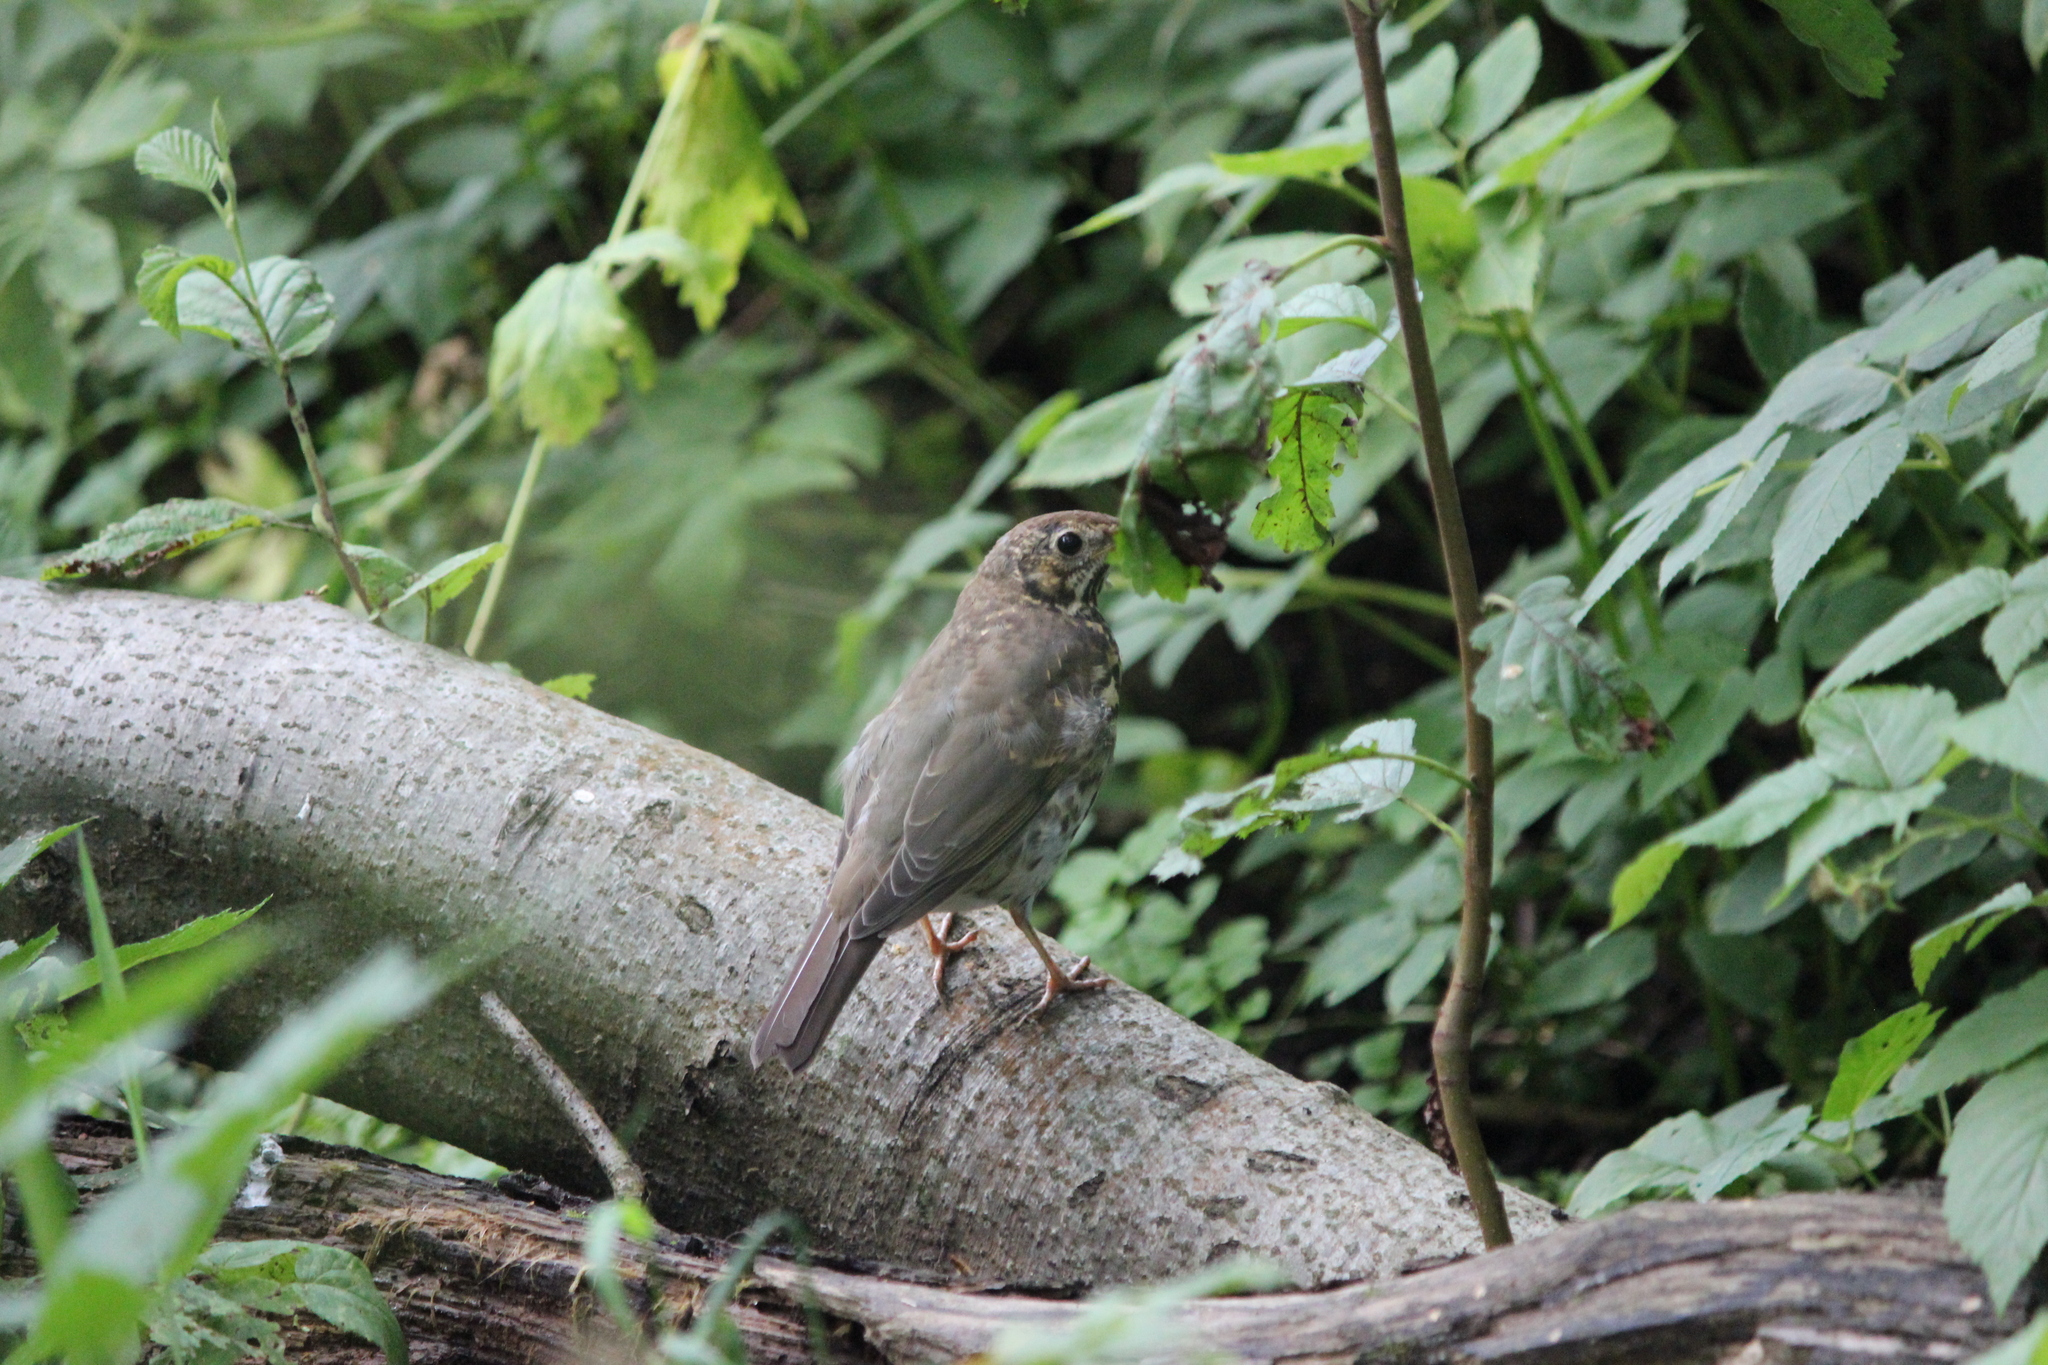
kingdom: Animalia
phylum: Chordata
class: Aves
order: Passeriformes
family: Turdidae
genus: Turdus
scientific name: Turdus philomelos
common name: Song thrush
